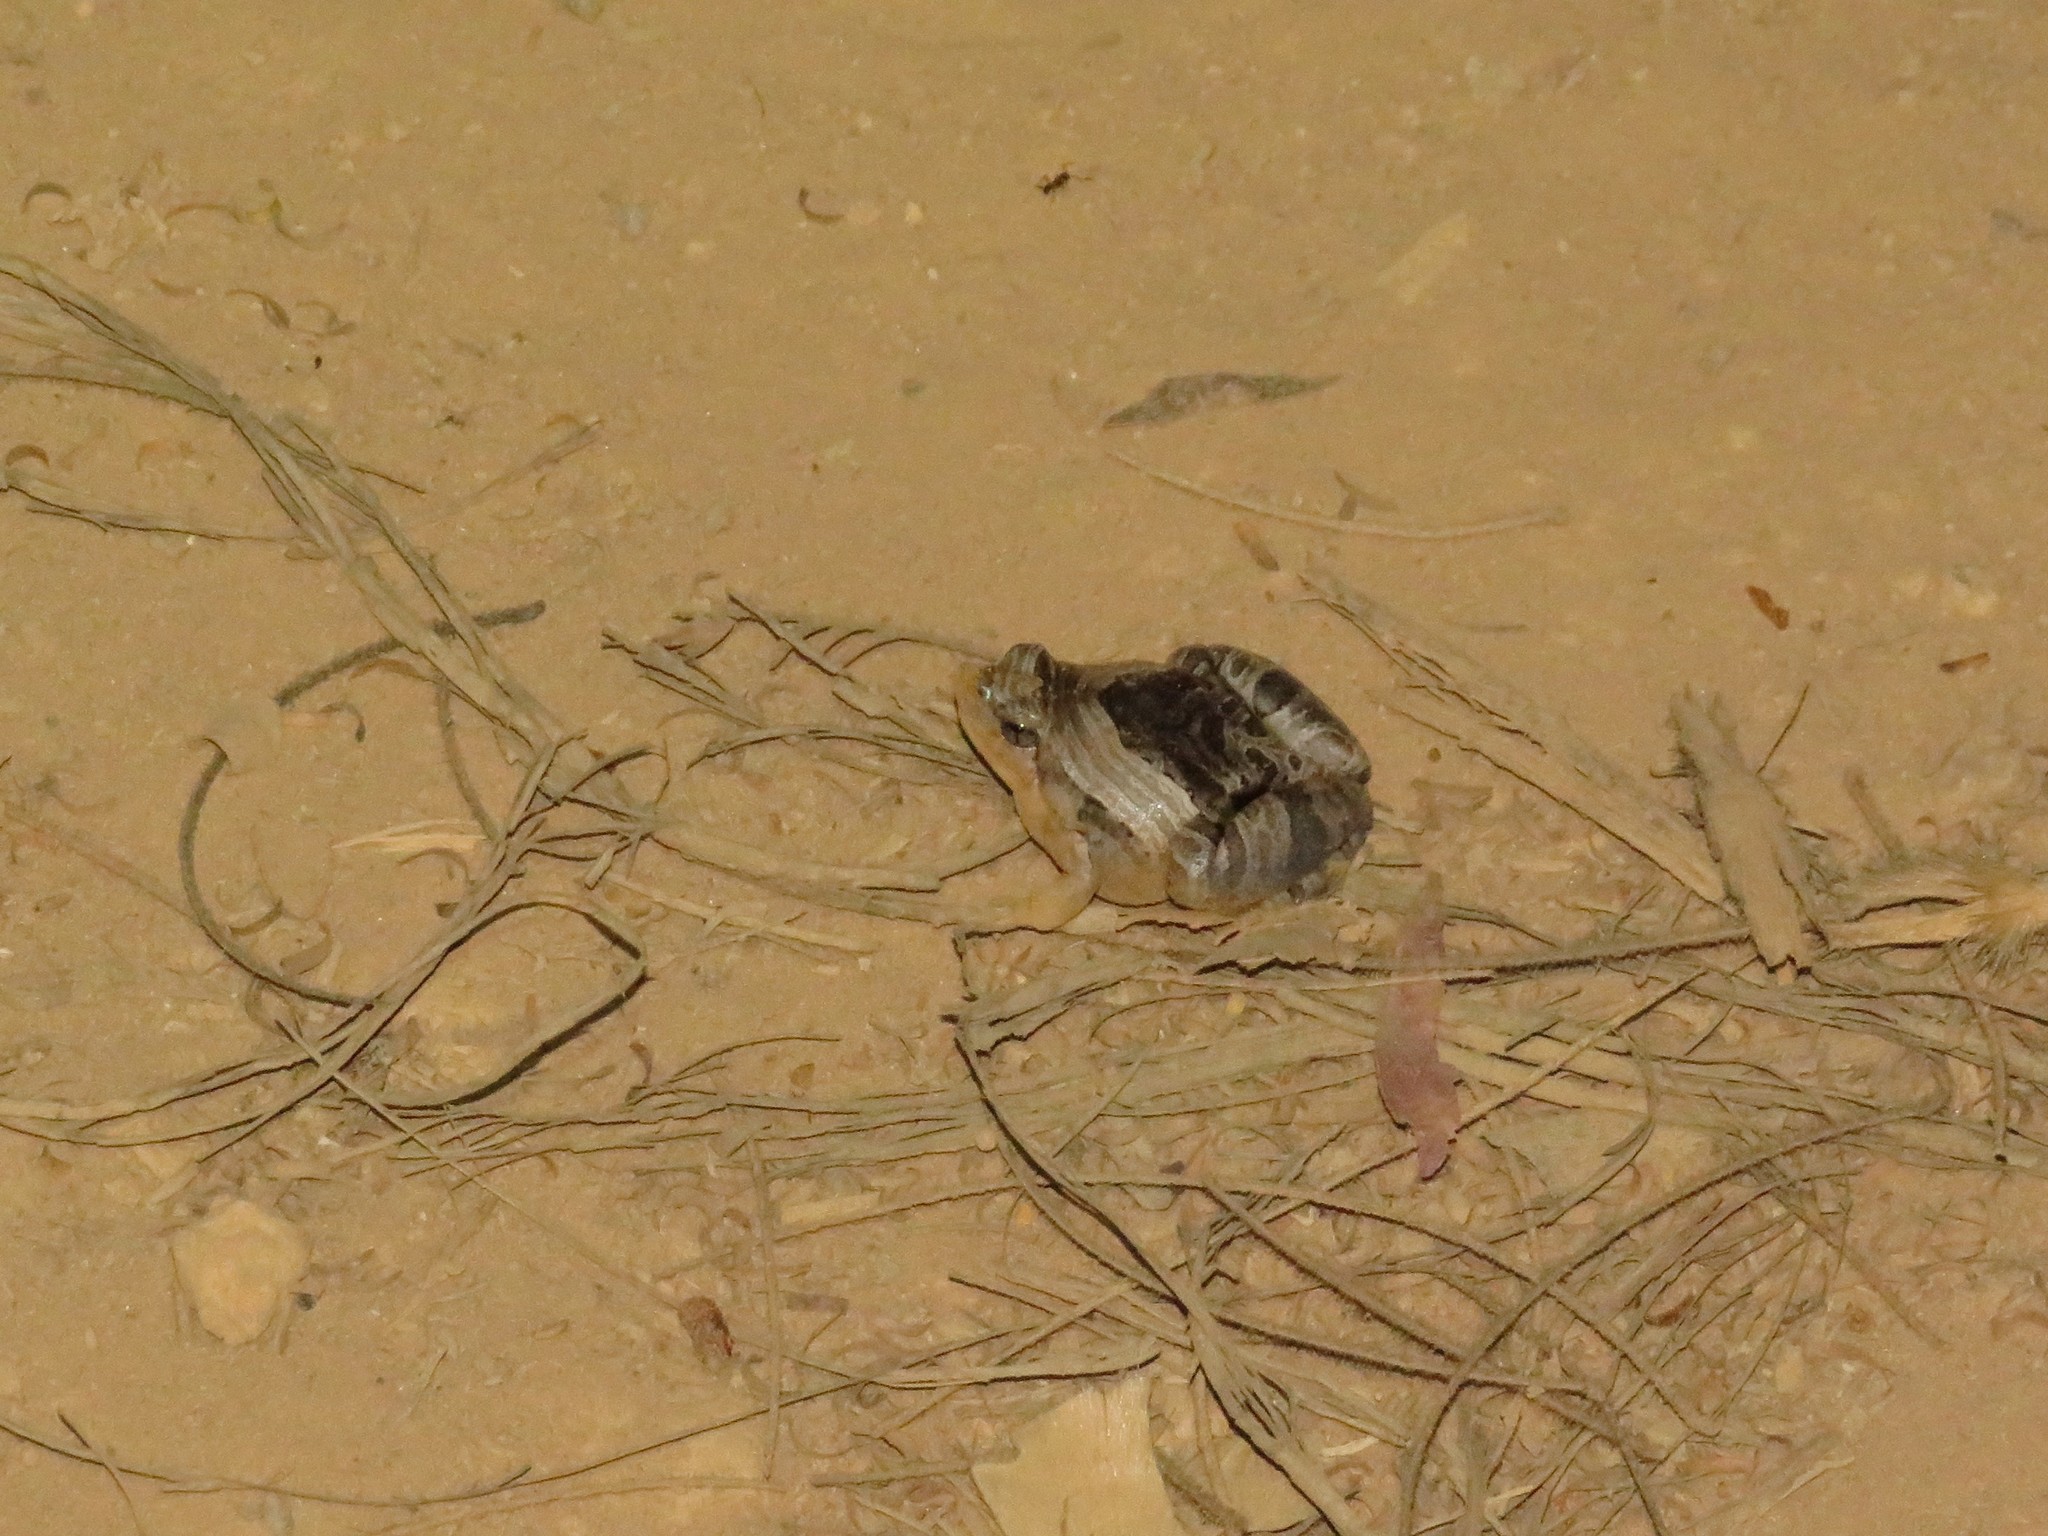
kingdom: Animalia
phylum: Chordata
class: Amphibia
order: Anura
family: Microhylidae
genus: Microhyla
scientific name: Microhyla pulchra
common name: Beautiful pygmy frog
